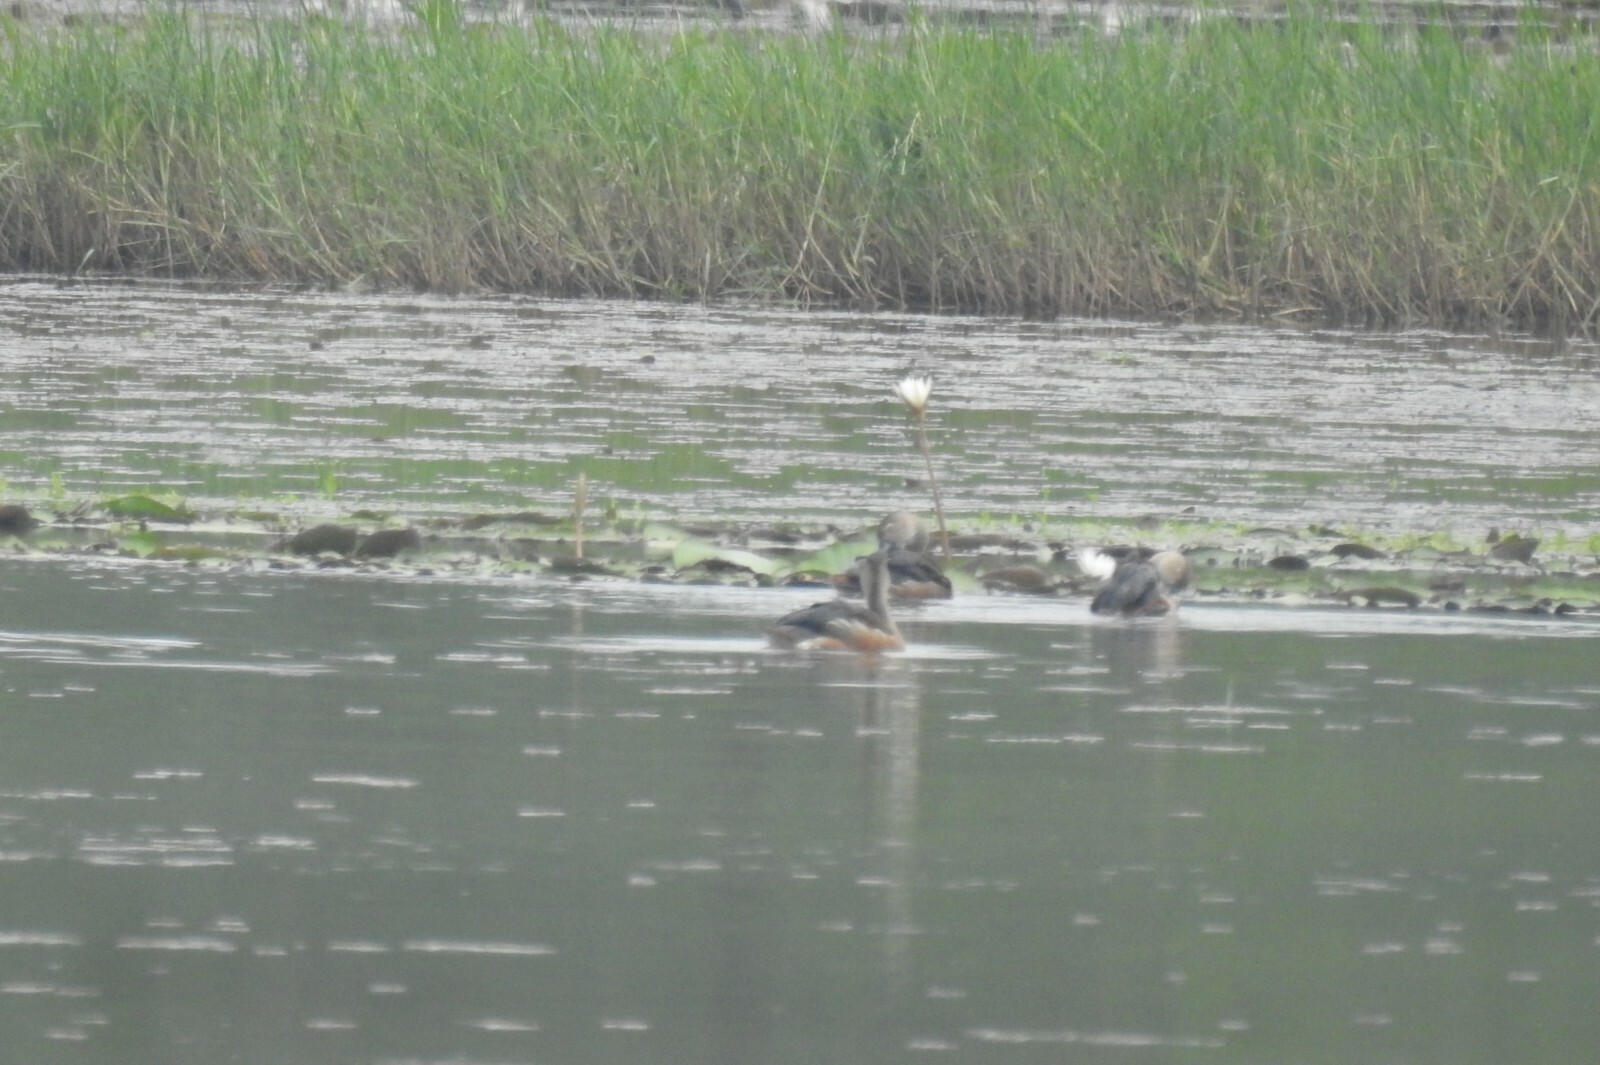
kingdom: Animalia
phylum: Chordata
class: Aves
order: Anseriformes
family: Anatidae
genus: Dendrocygna
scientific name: Dendrocygna javanica
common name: Lesser whistling-duck
